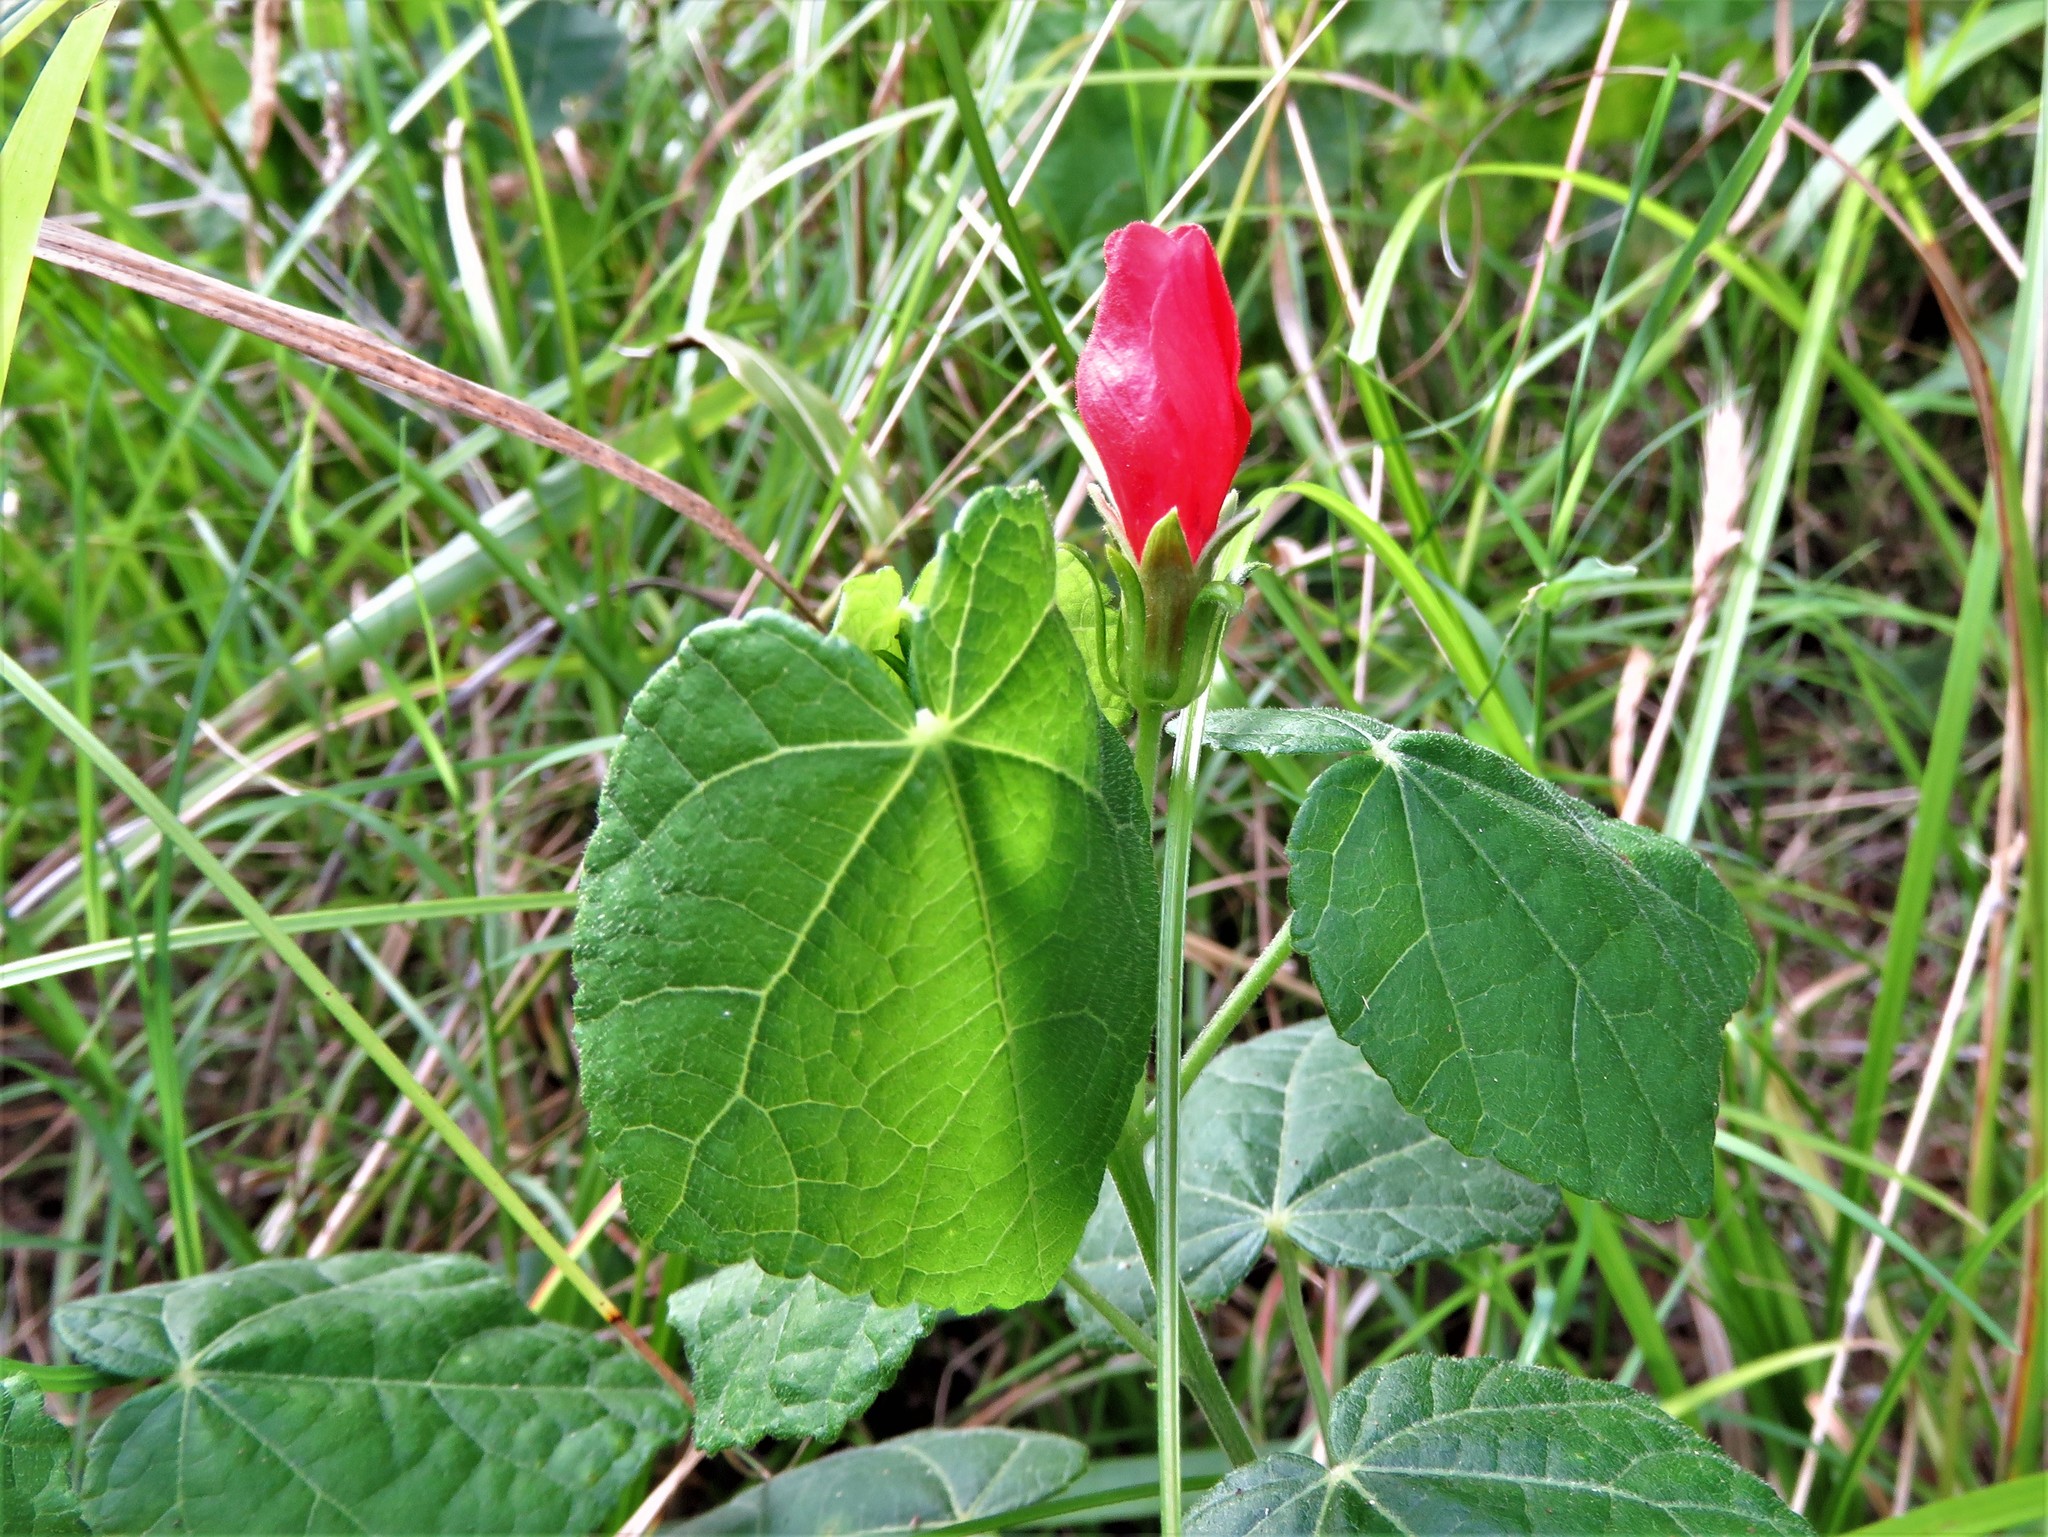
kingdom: Plantae
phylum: Tracheophyta
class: Magnoliopsida
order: Malvales
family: Malvaceae
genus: Malvaviscus
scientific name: Malvaviscus arboreus
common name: Wax mallow
